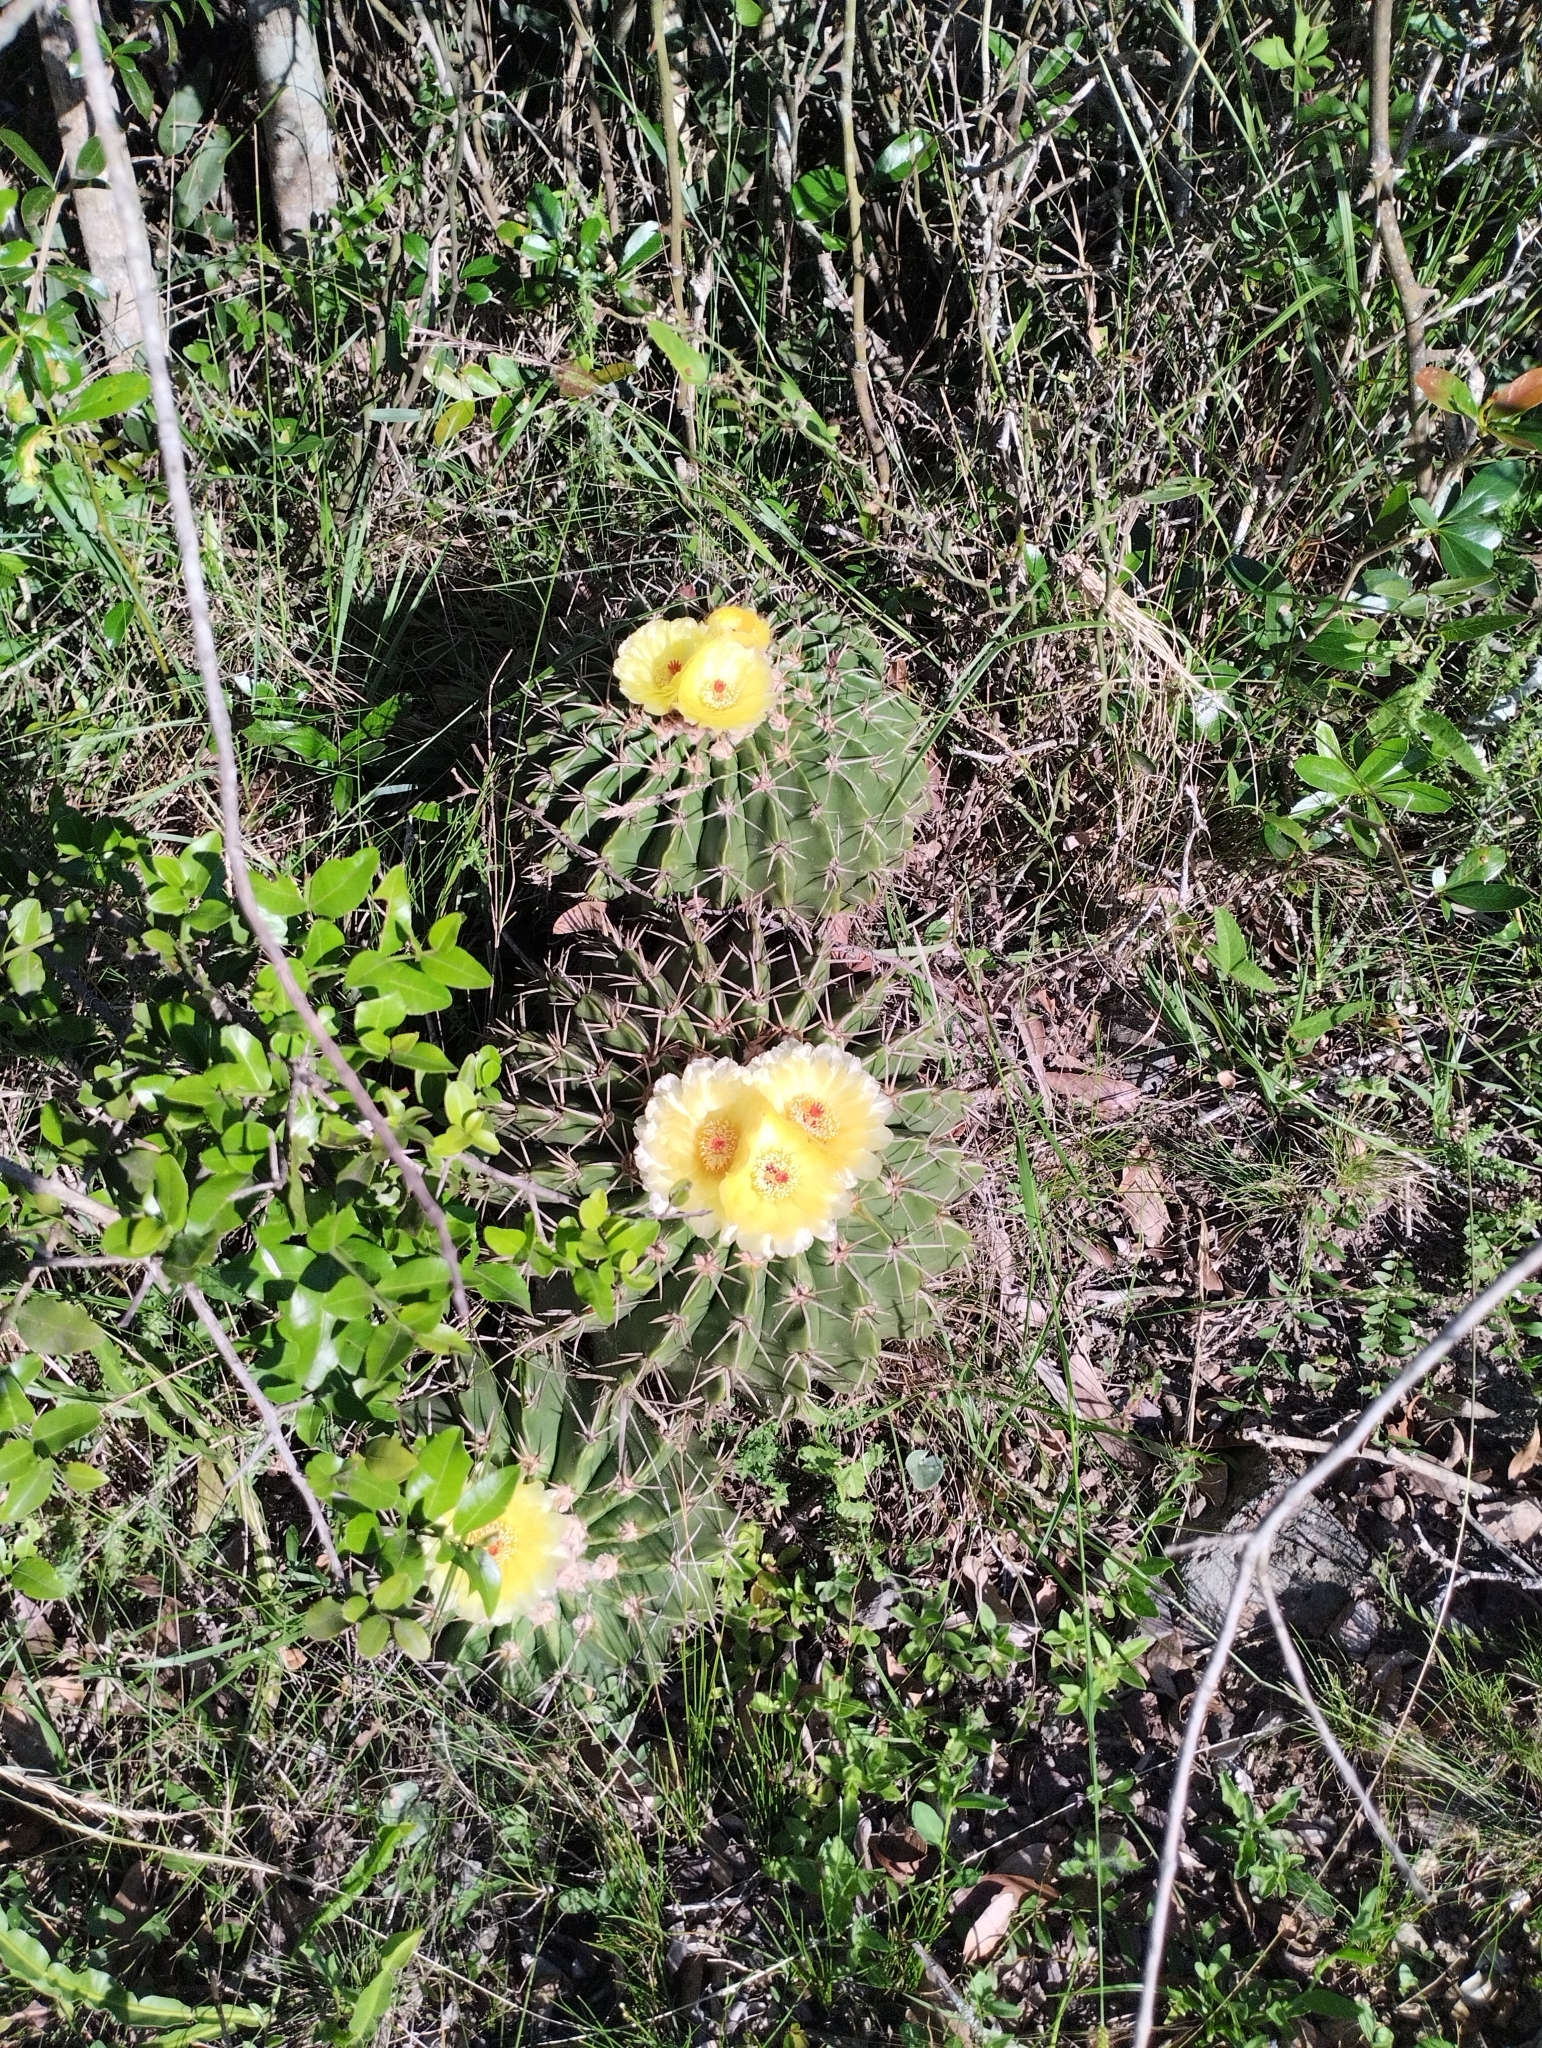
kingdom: Plantae
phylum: Tracheophyta
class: Magnoliopsida
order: Caryophyllales
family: Cactaceae
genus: Parodia
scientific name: Parodia erinacea
